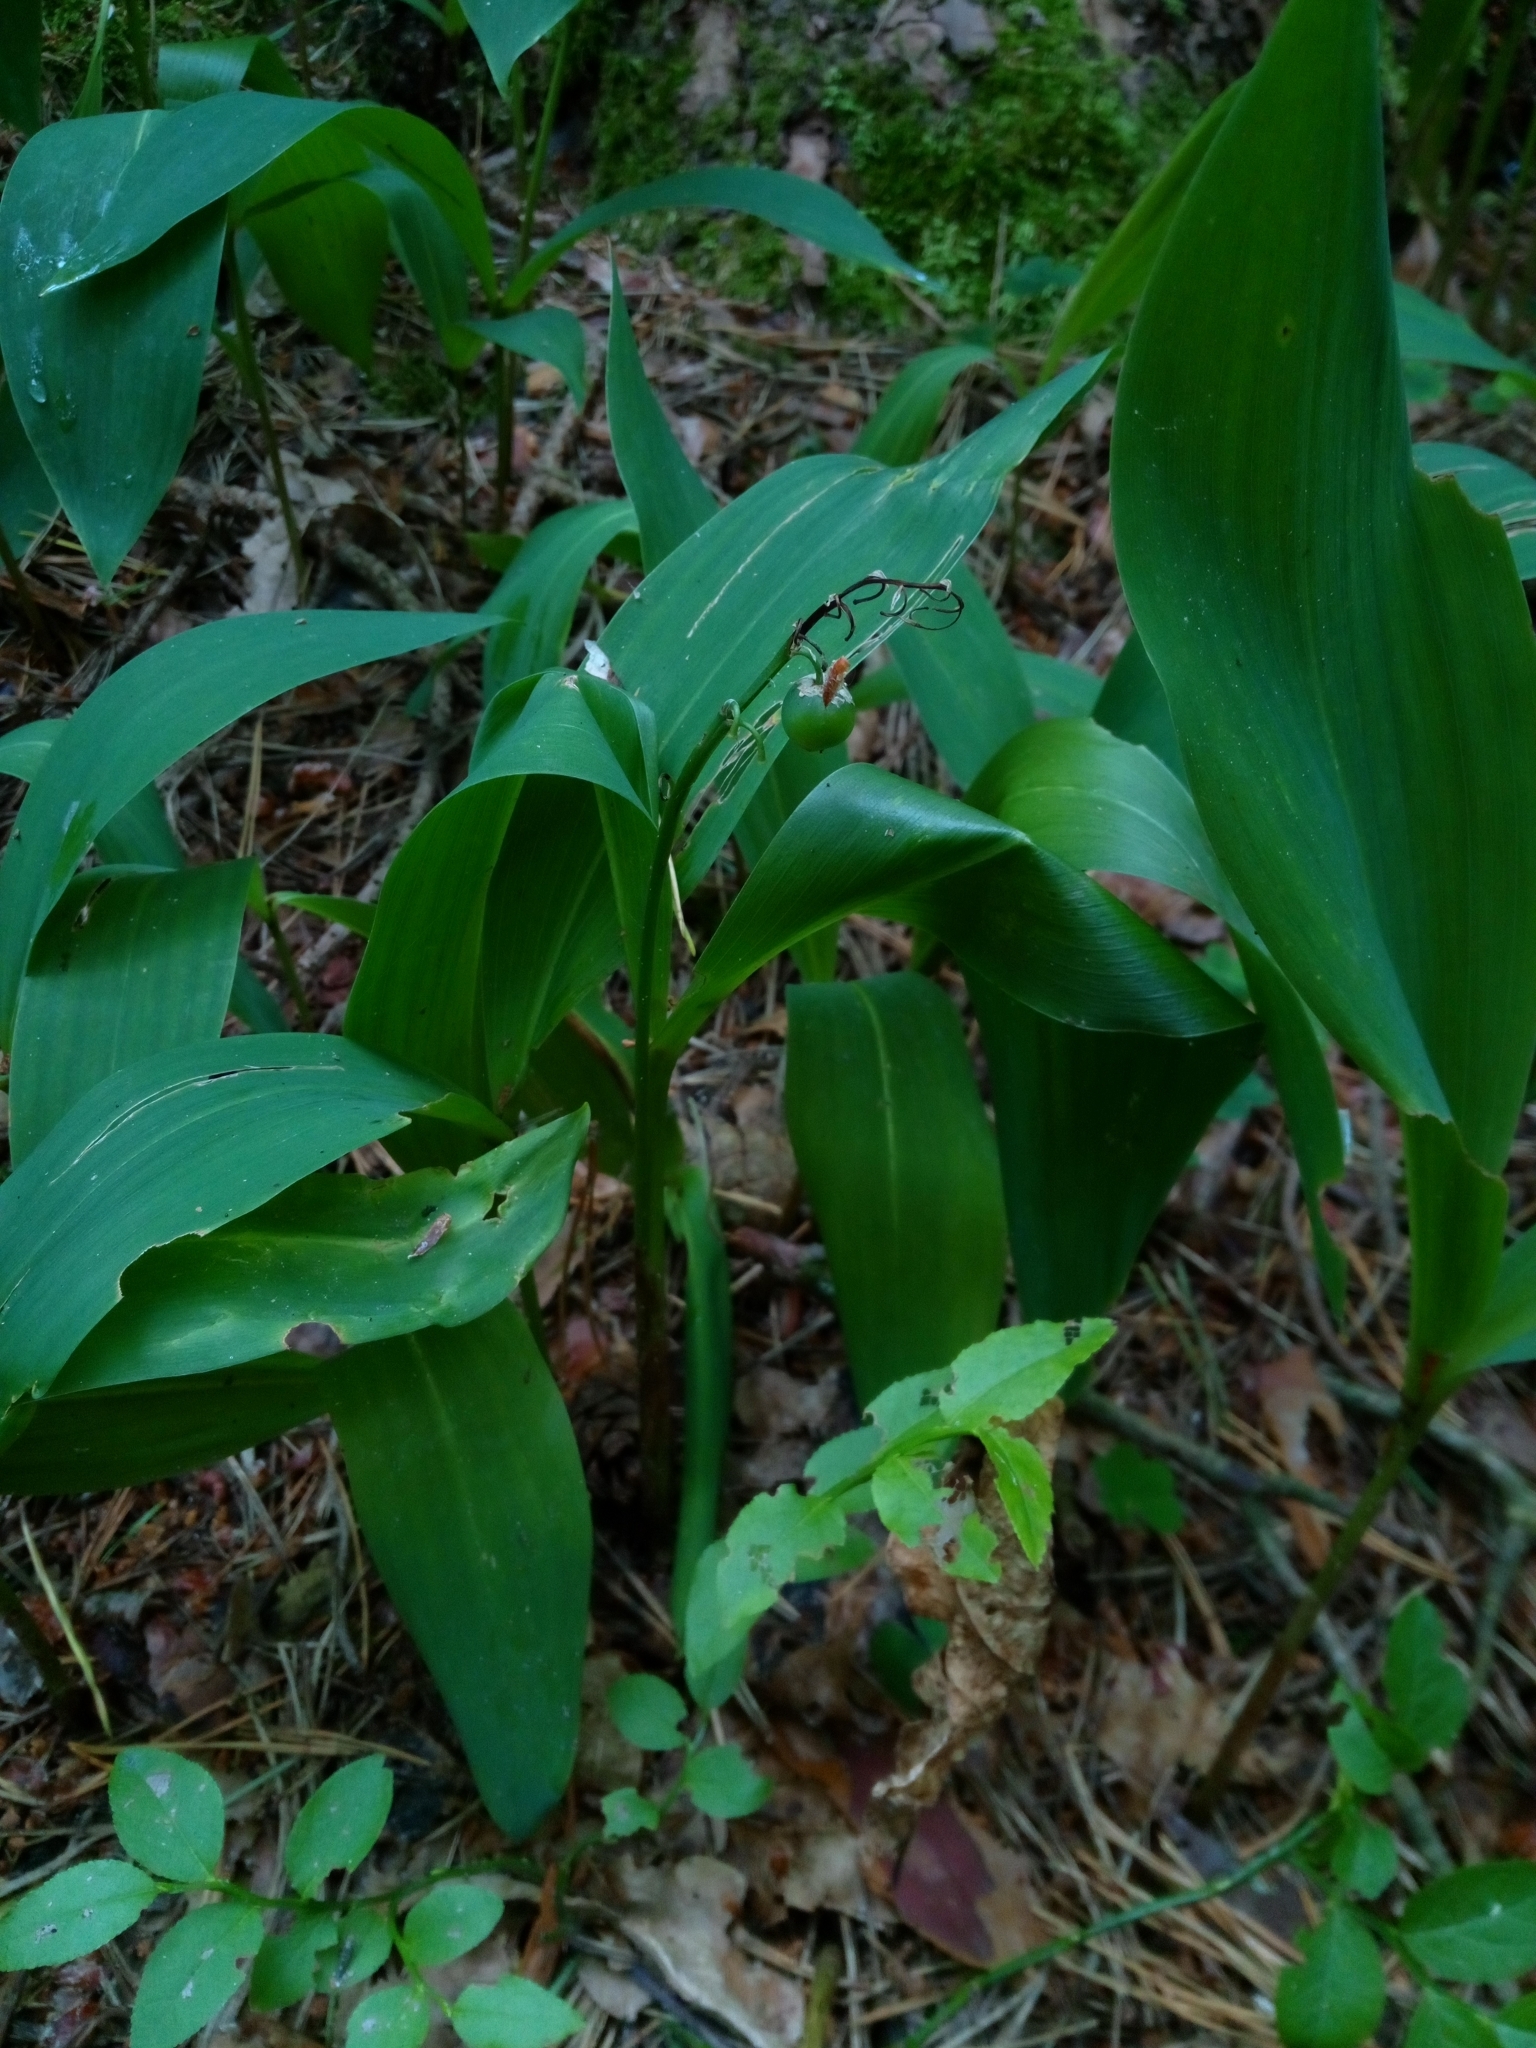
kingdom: Plantae
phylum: Tracheophyta
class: Liliopsida
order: Asparagales
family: Asparagaceae
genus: Convallaria
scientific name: Convallaria majalis
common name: Lily-of-the-valley
